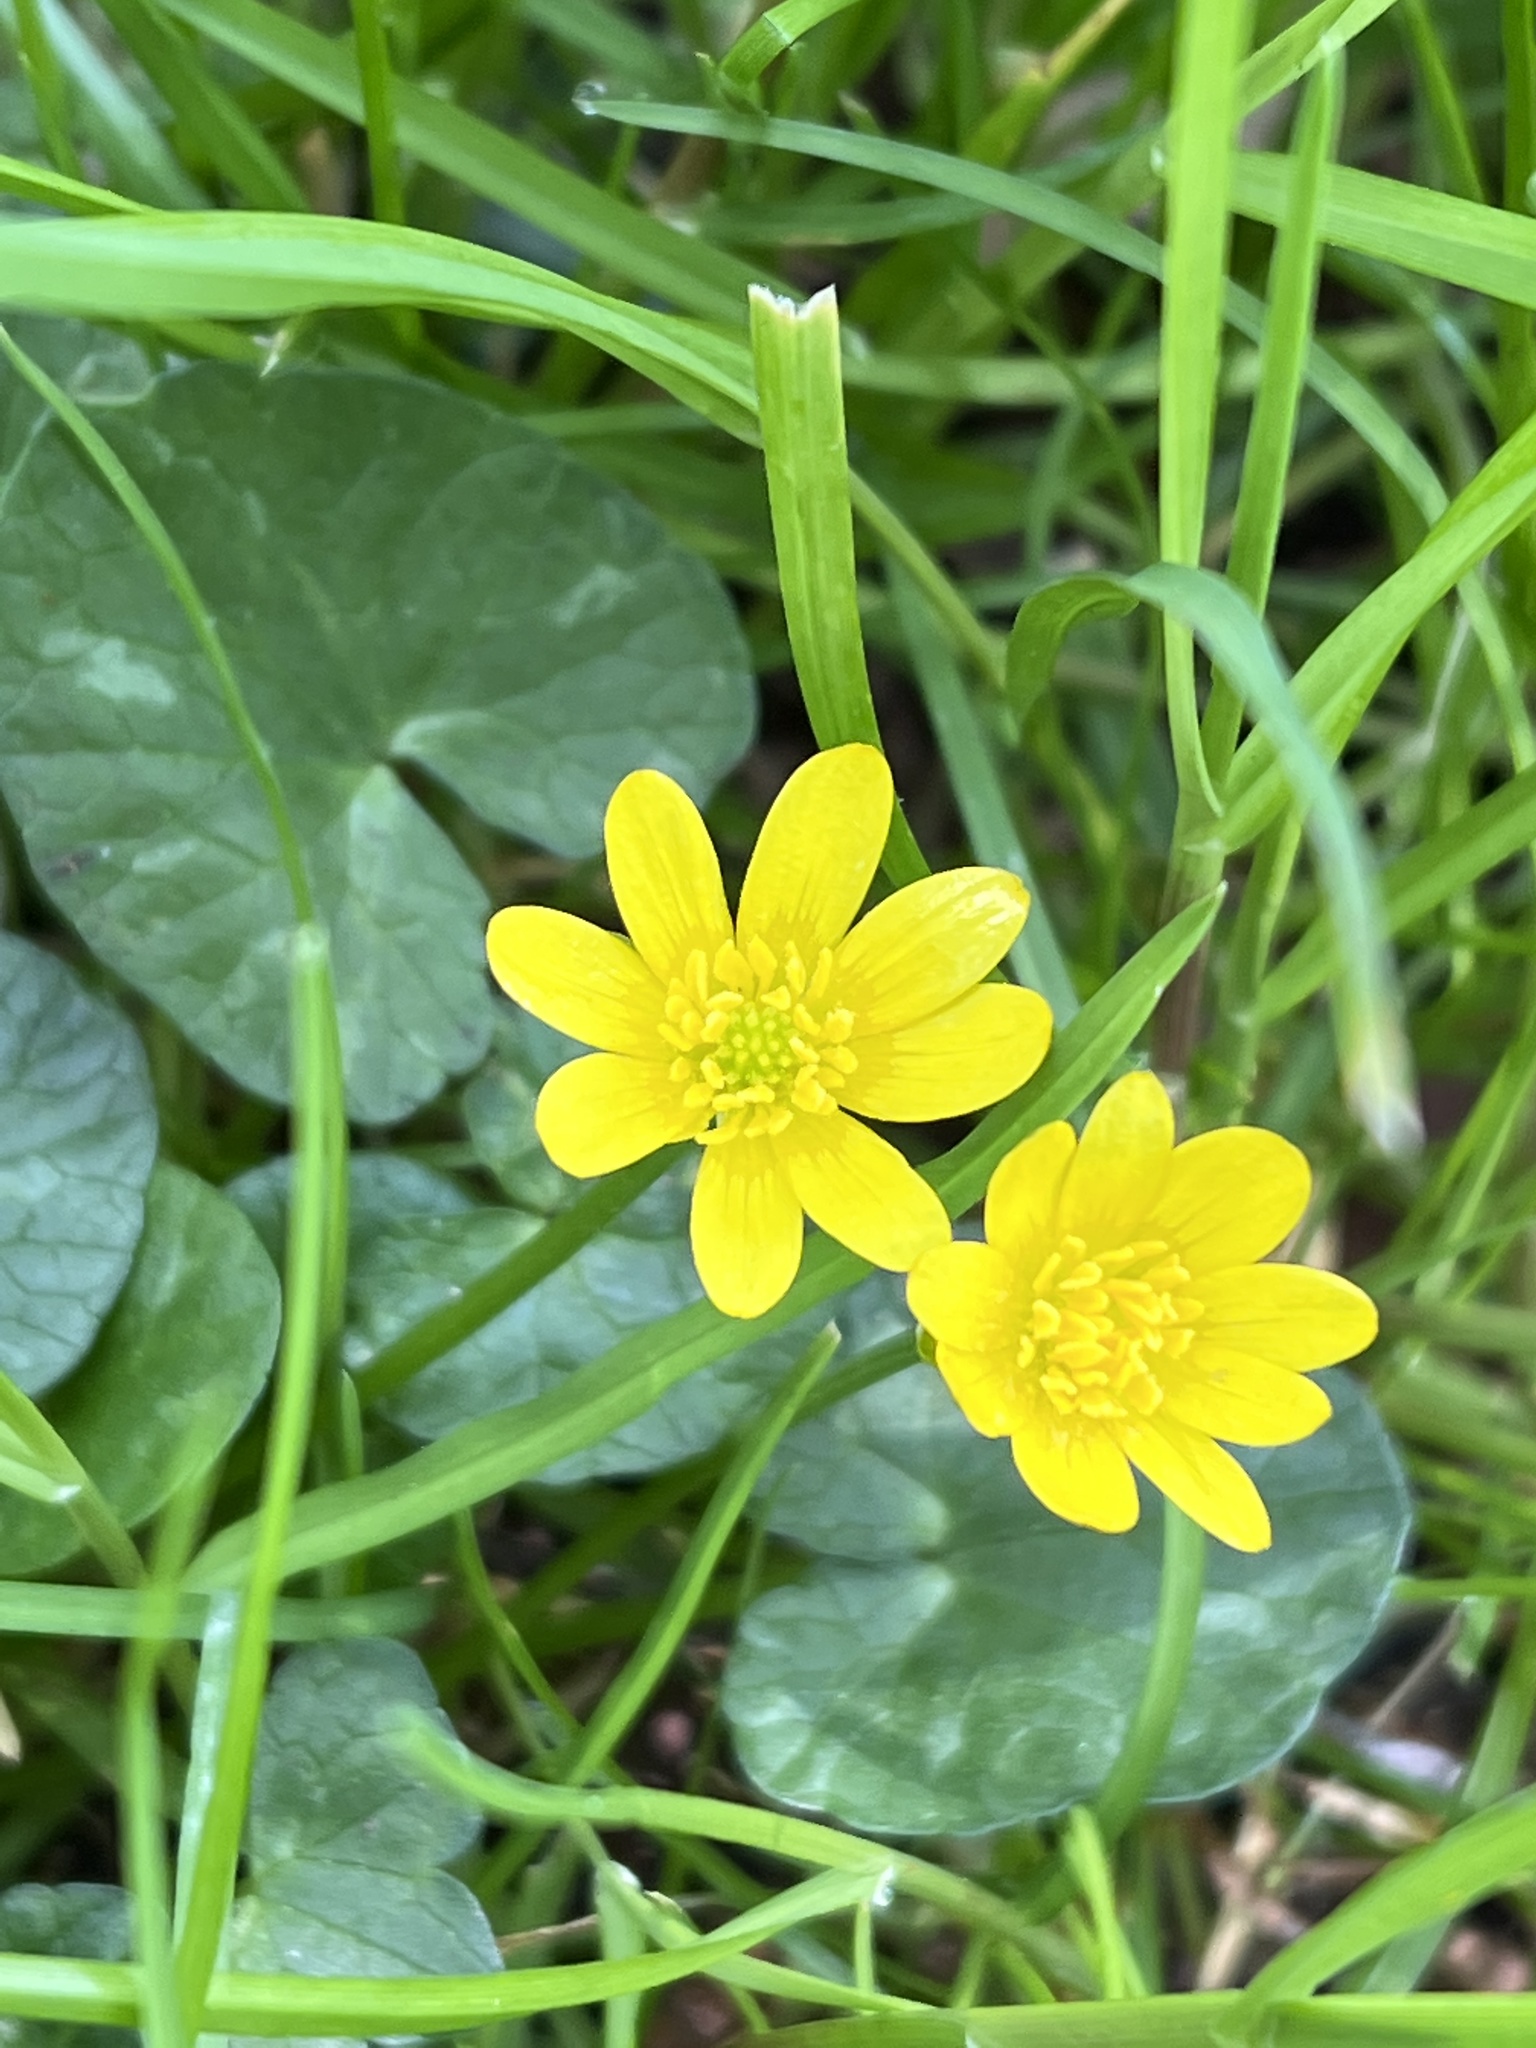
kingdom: Plantae
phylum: Tracheophyta
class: Magnoliopsida
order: Ranunculales
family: Ranunculaceae
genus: Ficaria
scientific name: Ficaria verna
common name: Lesser celandine
